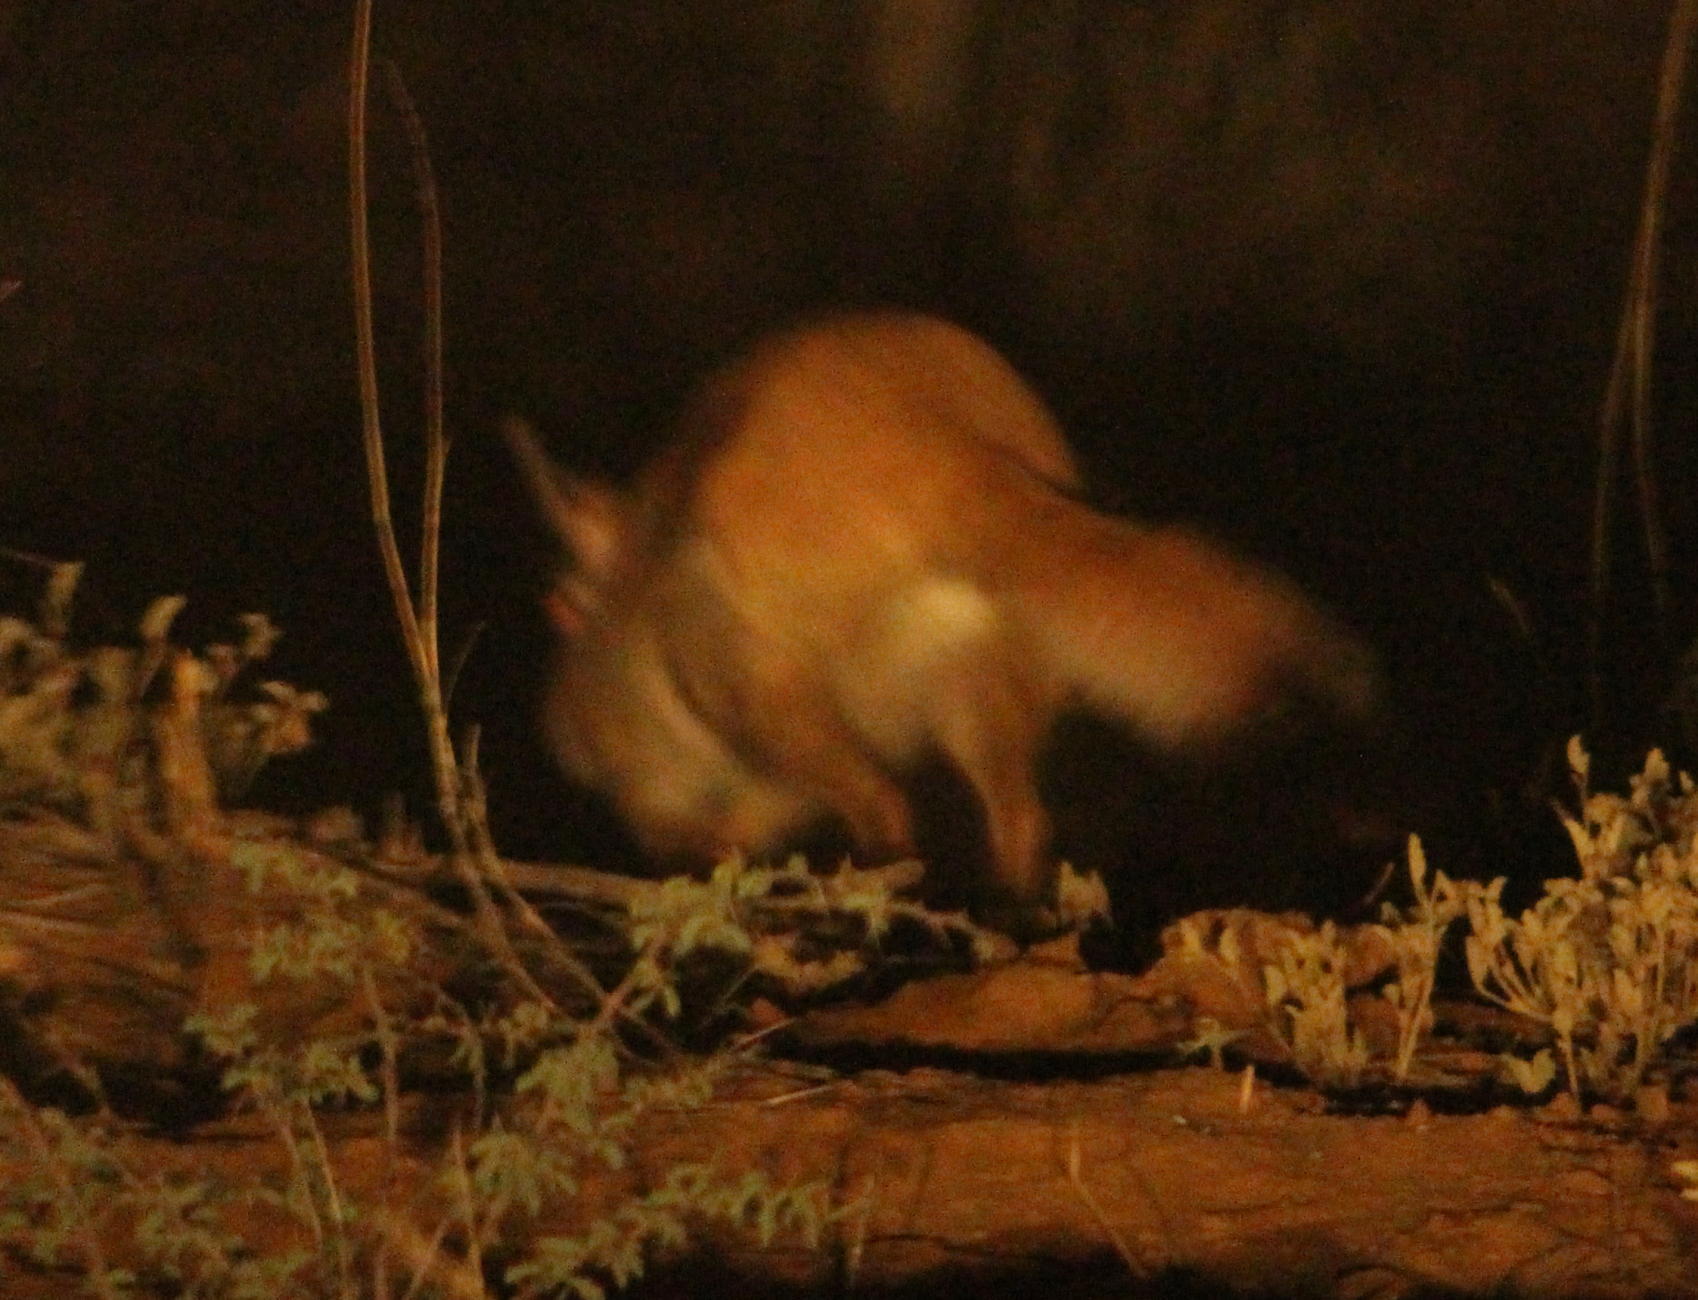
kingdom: Animalia
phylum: Chordata
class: Mammalia
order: Rodentia
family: Pedetidae
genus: Pedetes
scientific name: Pedetes capensis
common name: South african spring hare
